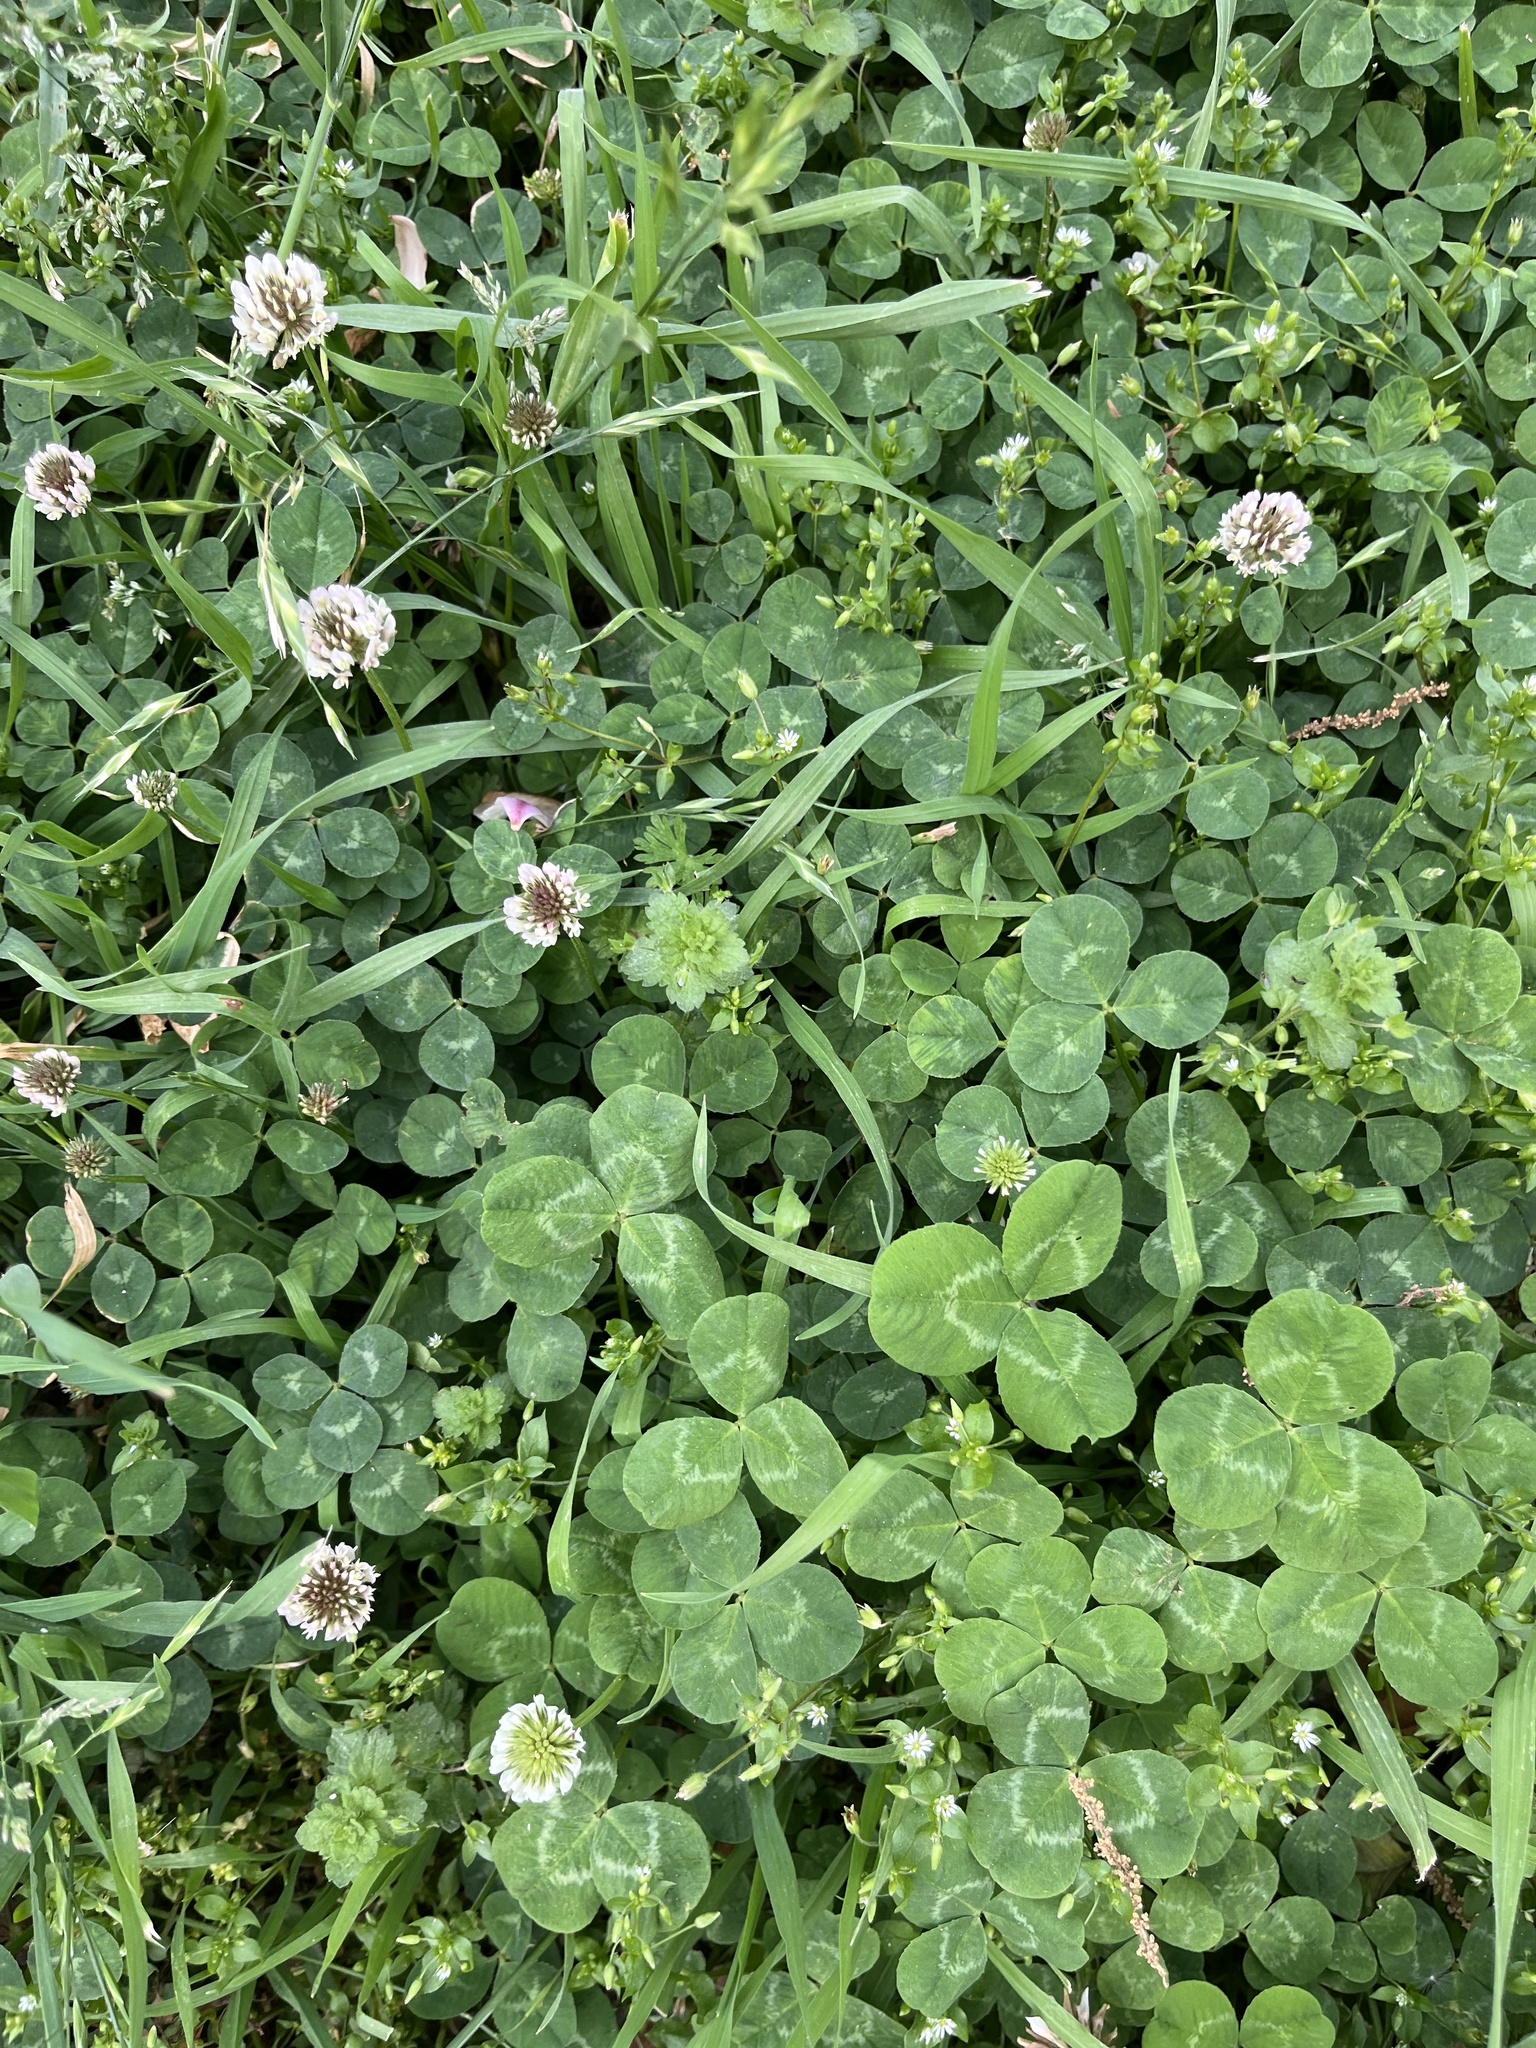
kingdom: Plantae
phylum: Tracheophyta
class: Magnoliopsida
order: Fabales
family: Fabaceae
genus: Trifolium
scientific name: Trifolium repens
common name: White clover
